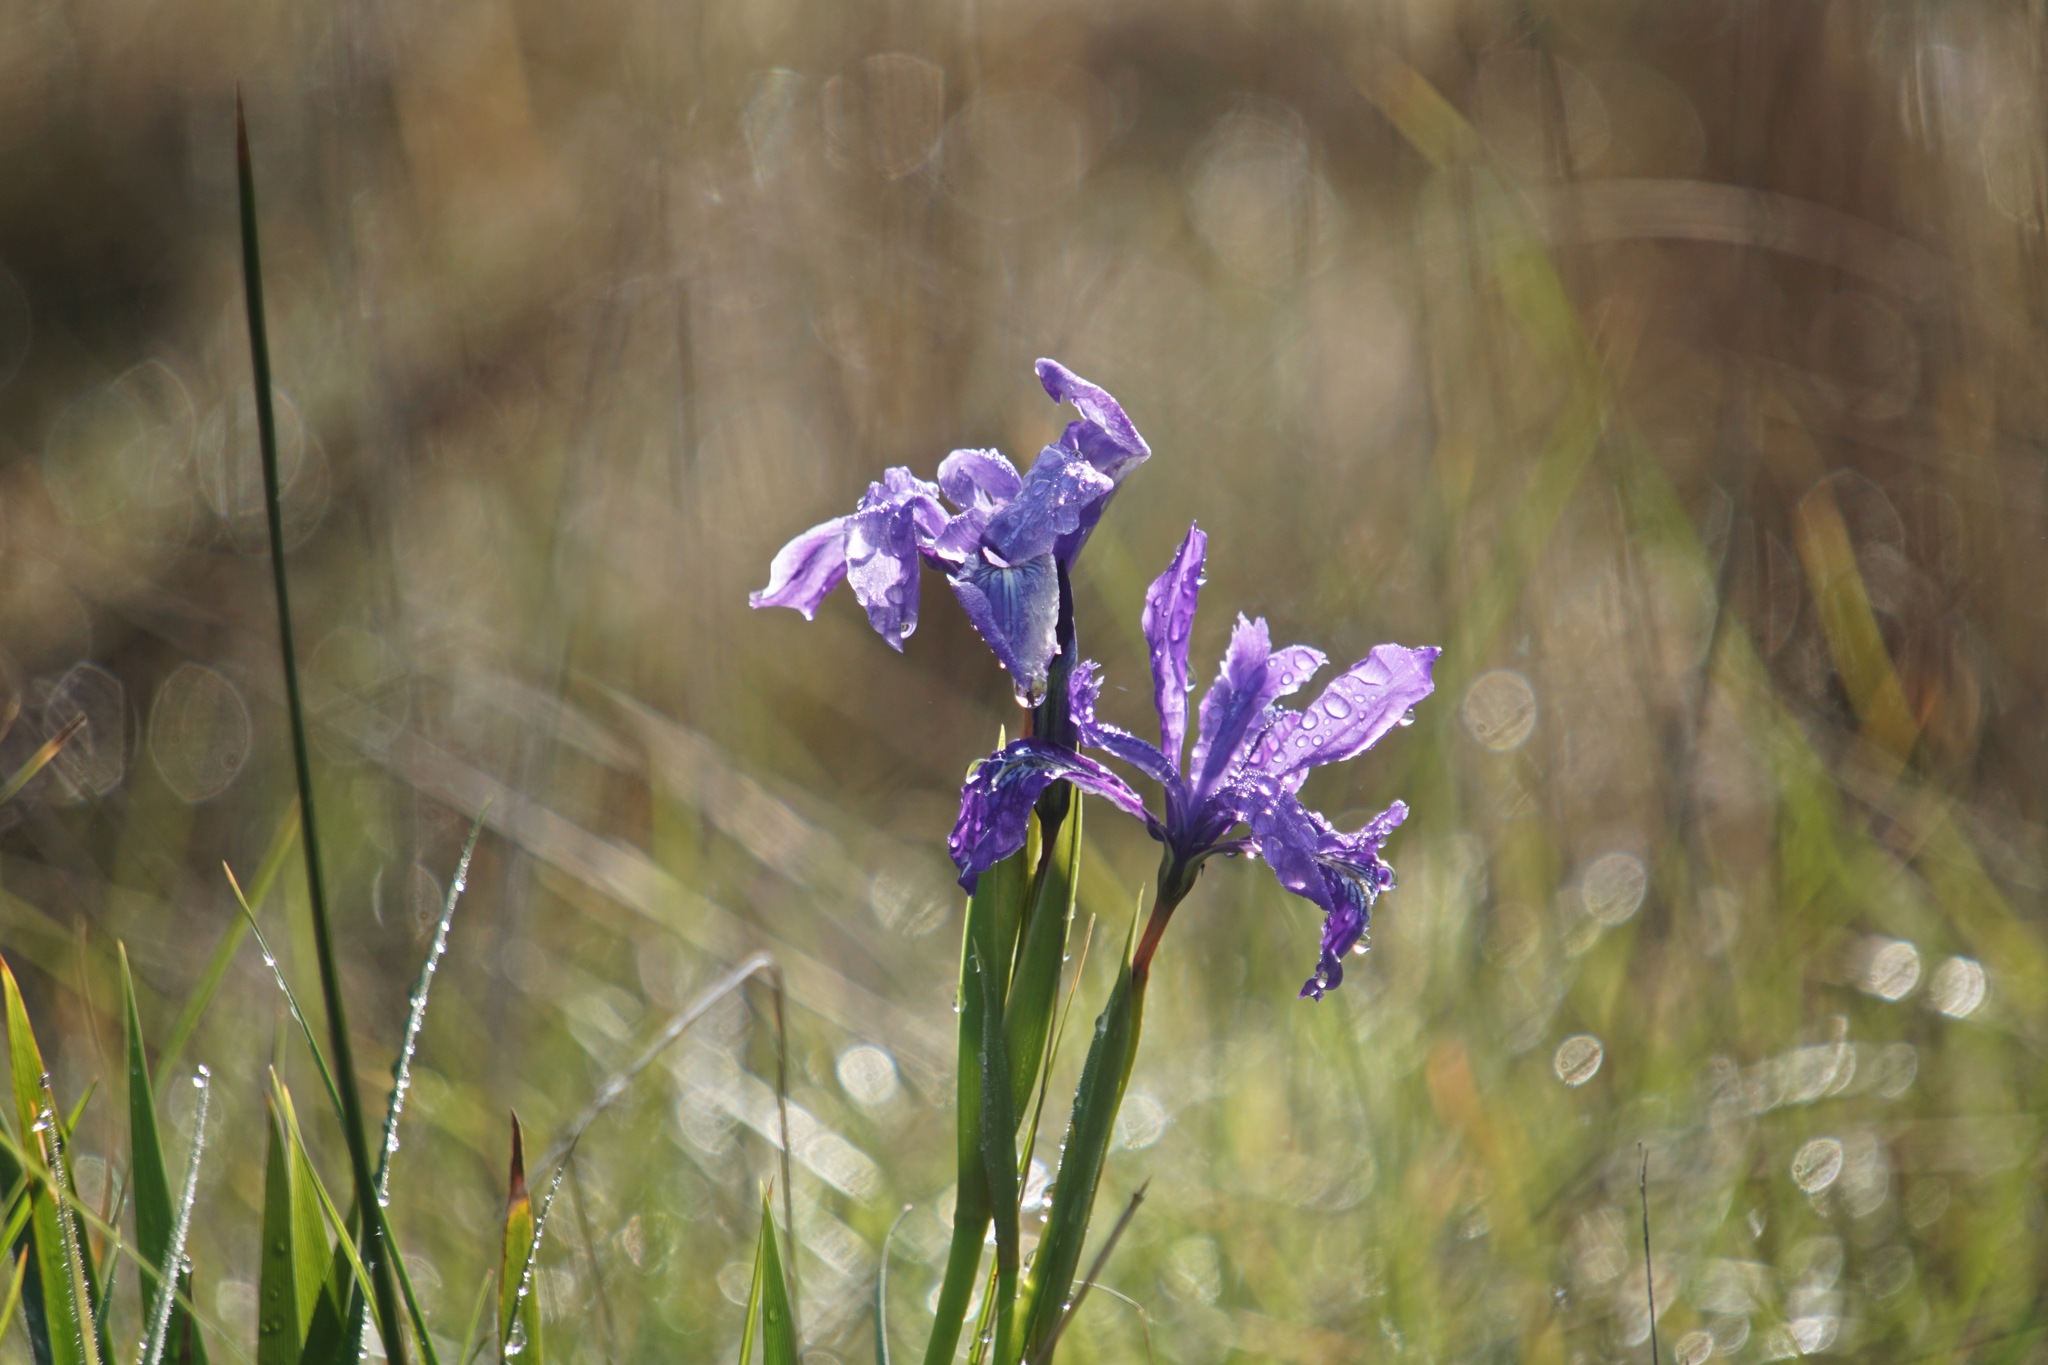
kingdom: Plantae
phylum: Tracheophyta
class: Liliopsida
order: Asparagales
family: Iridaceae
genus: Iris
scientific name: Iris douglasiana
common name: Marin iris
